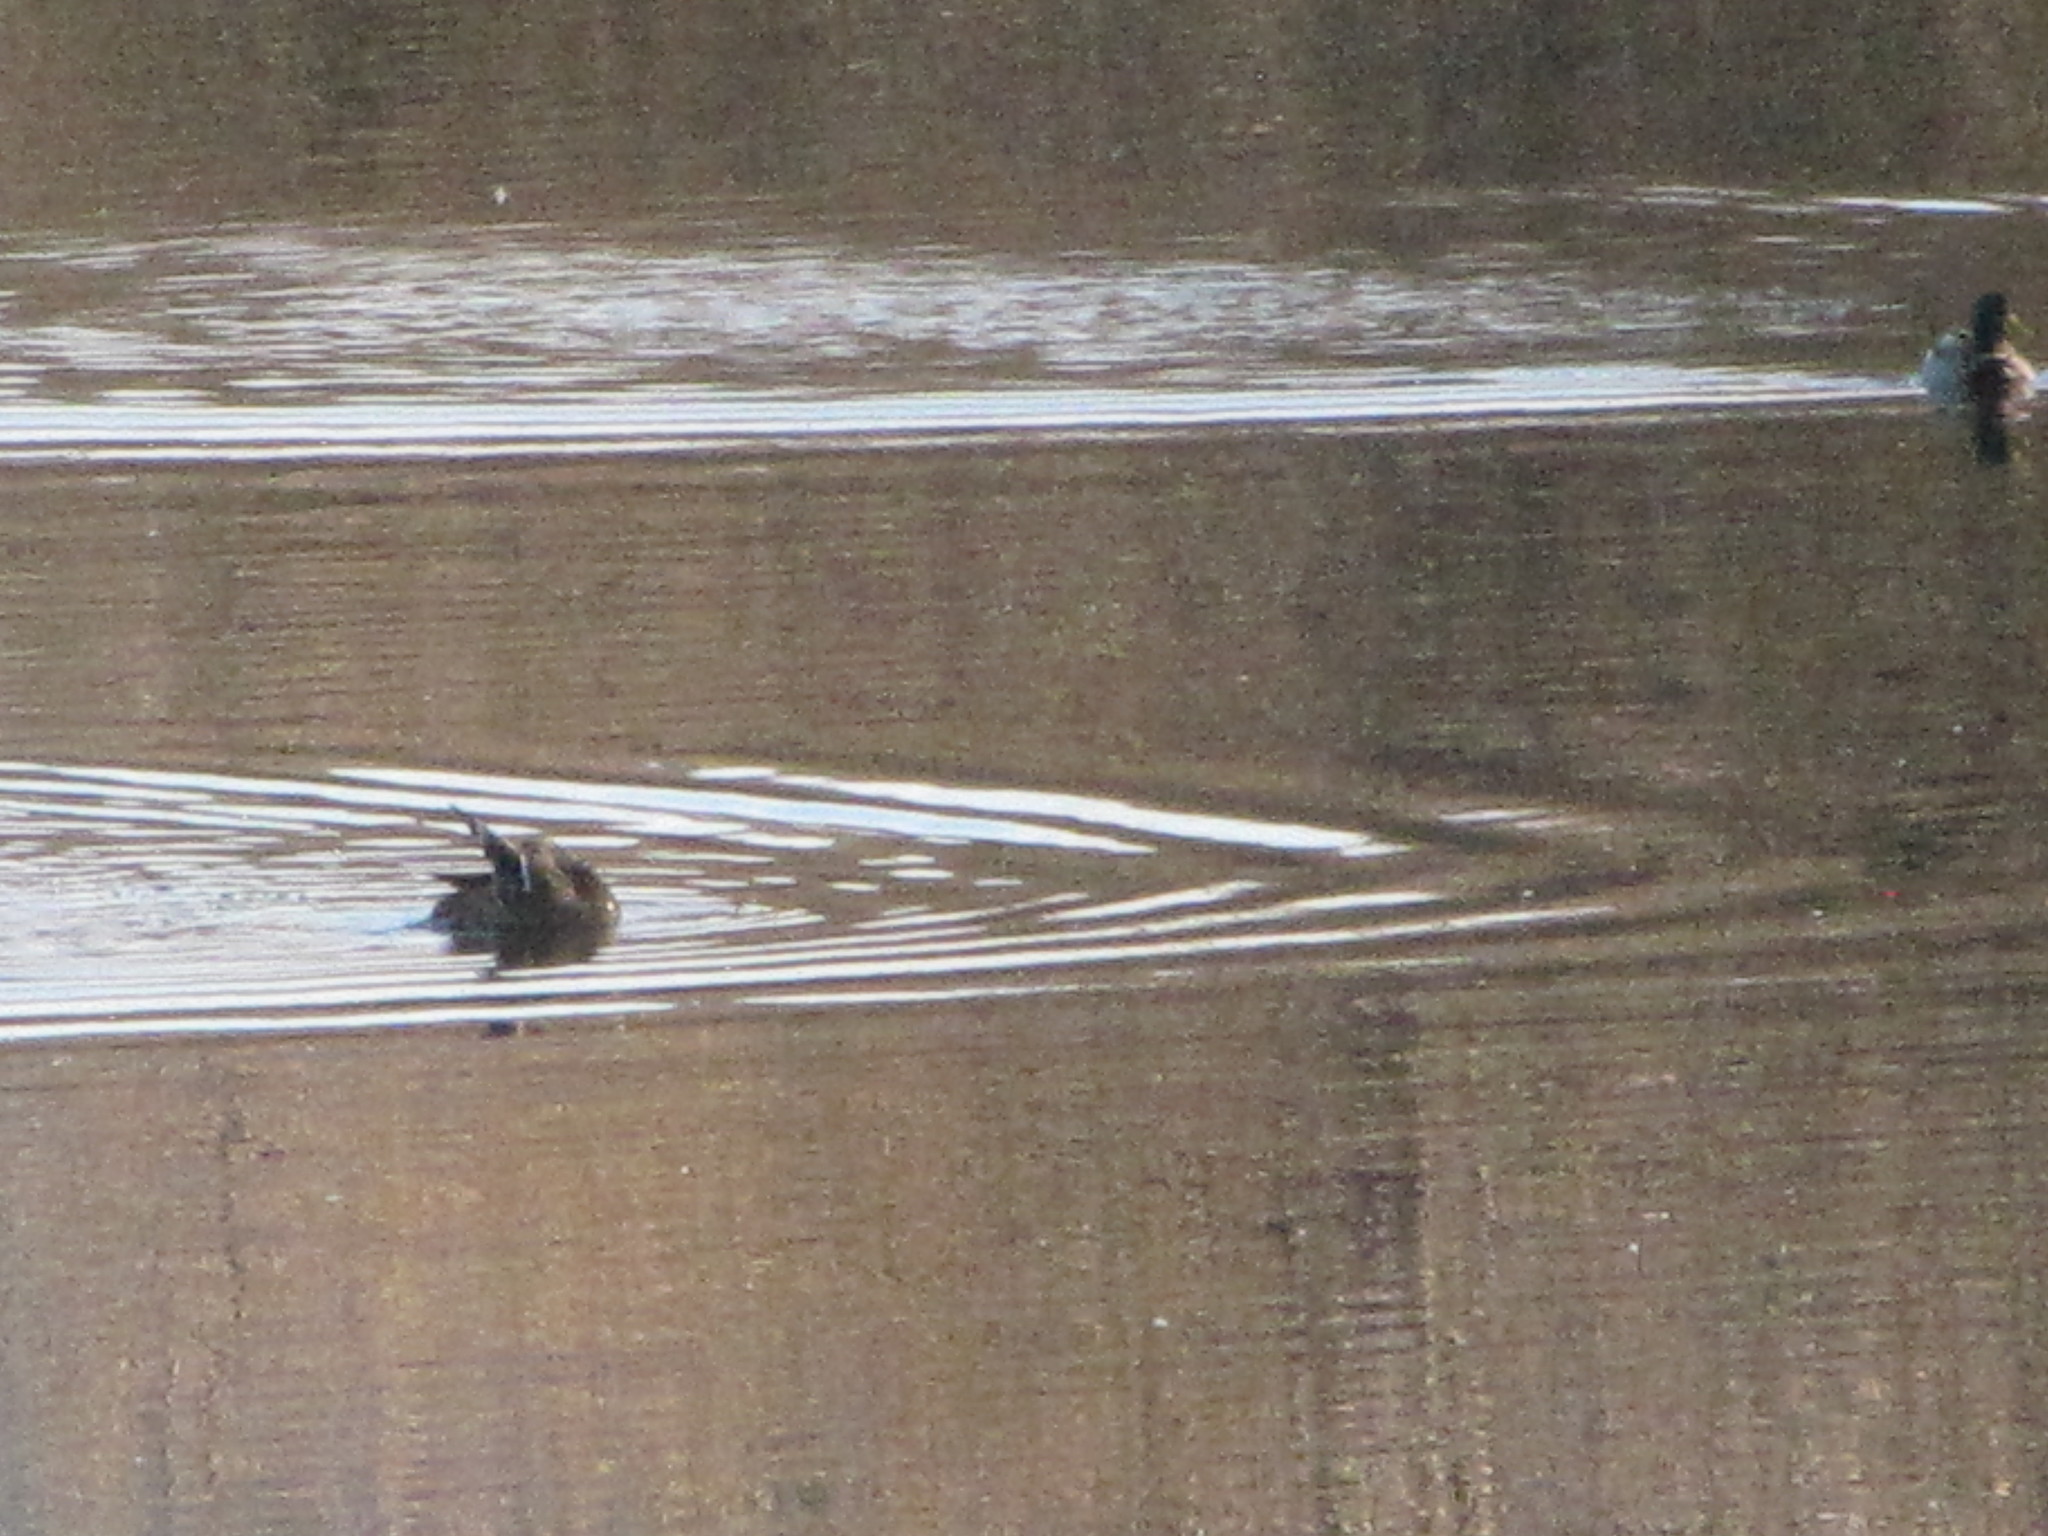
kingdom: Animalia
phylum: Chordata
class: Aves
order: Anseriformes
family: Anatidae
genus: Anas
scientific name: Anas platyrhynchos
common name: Mallard
